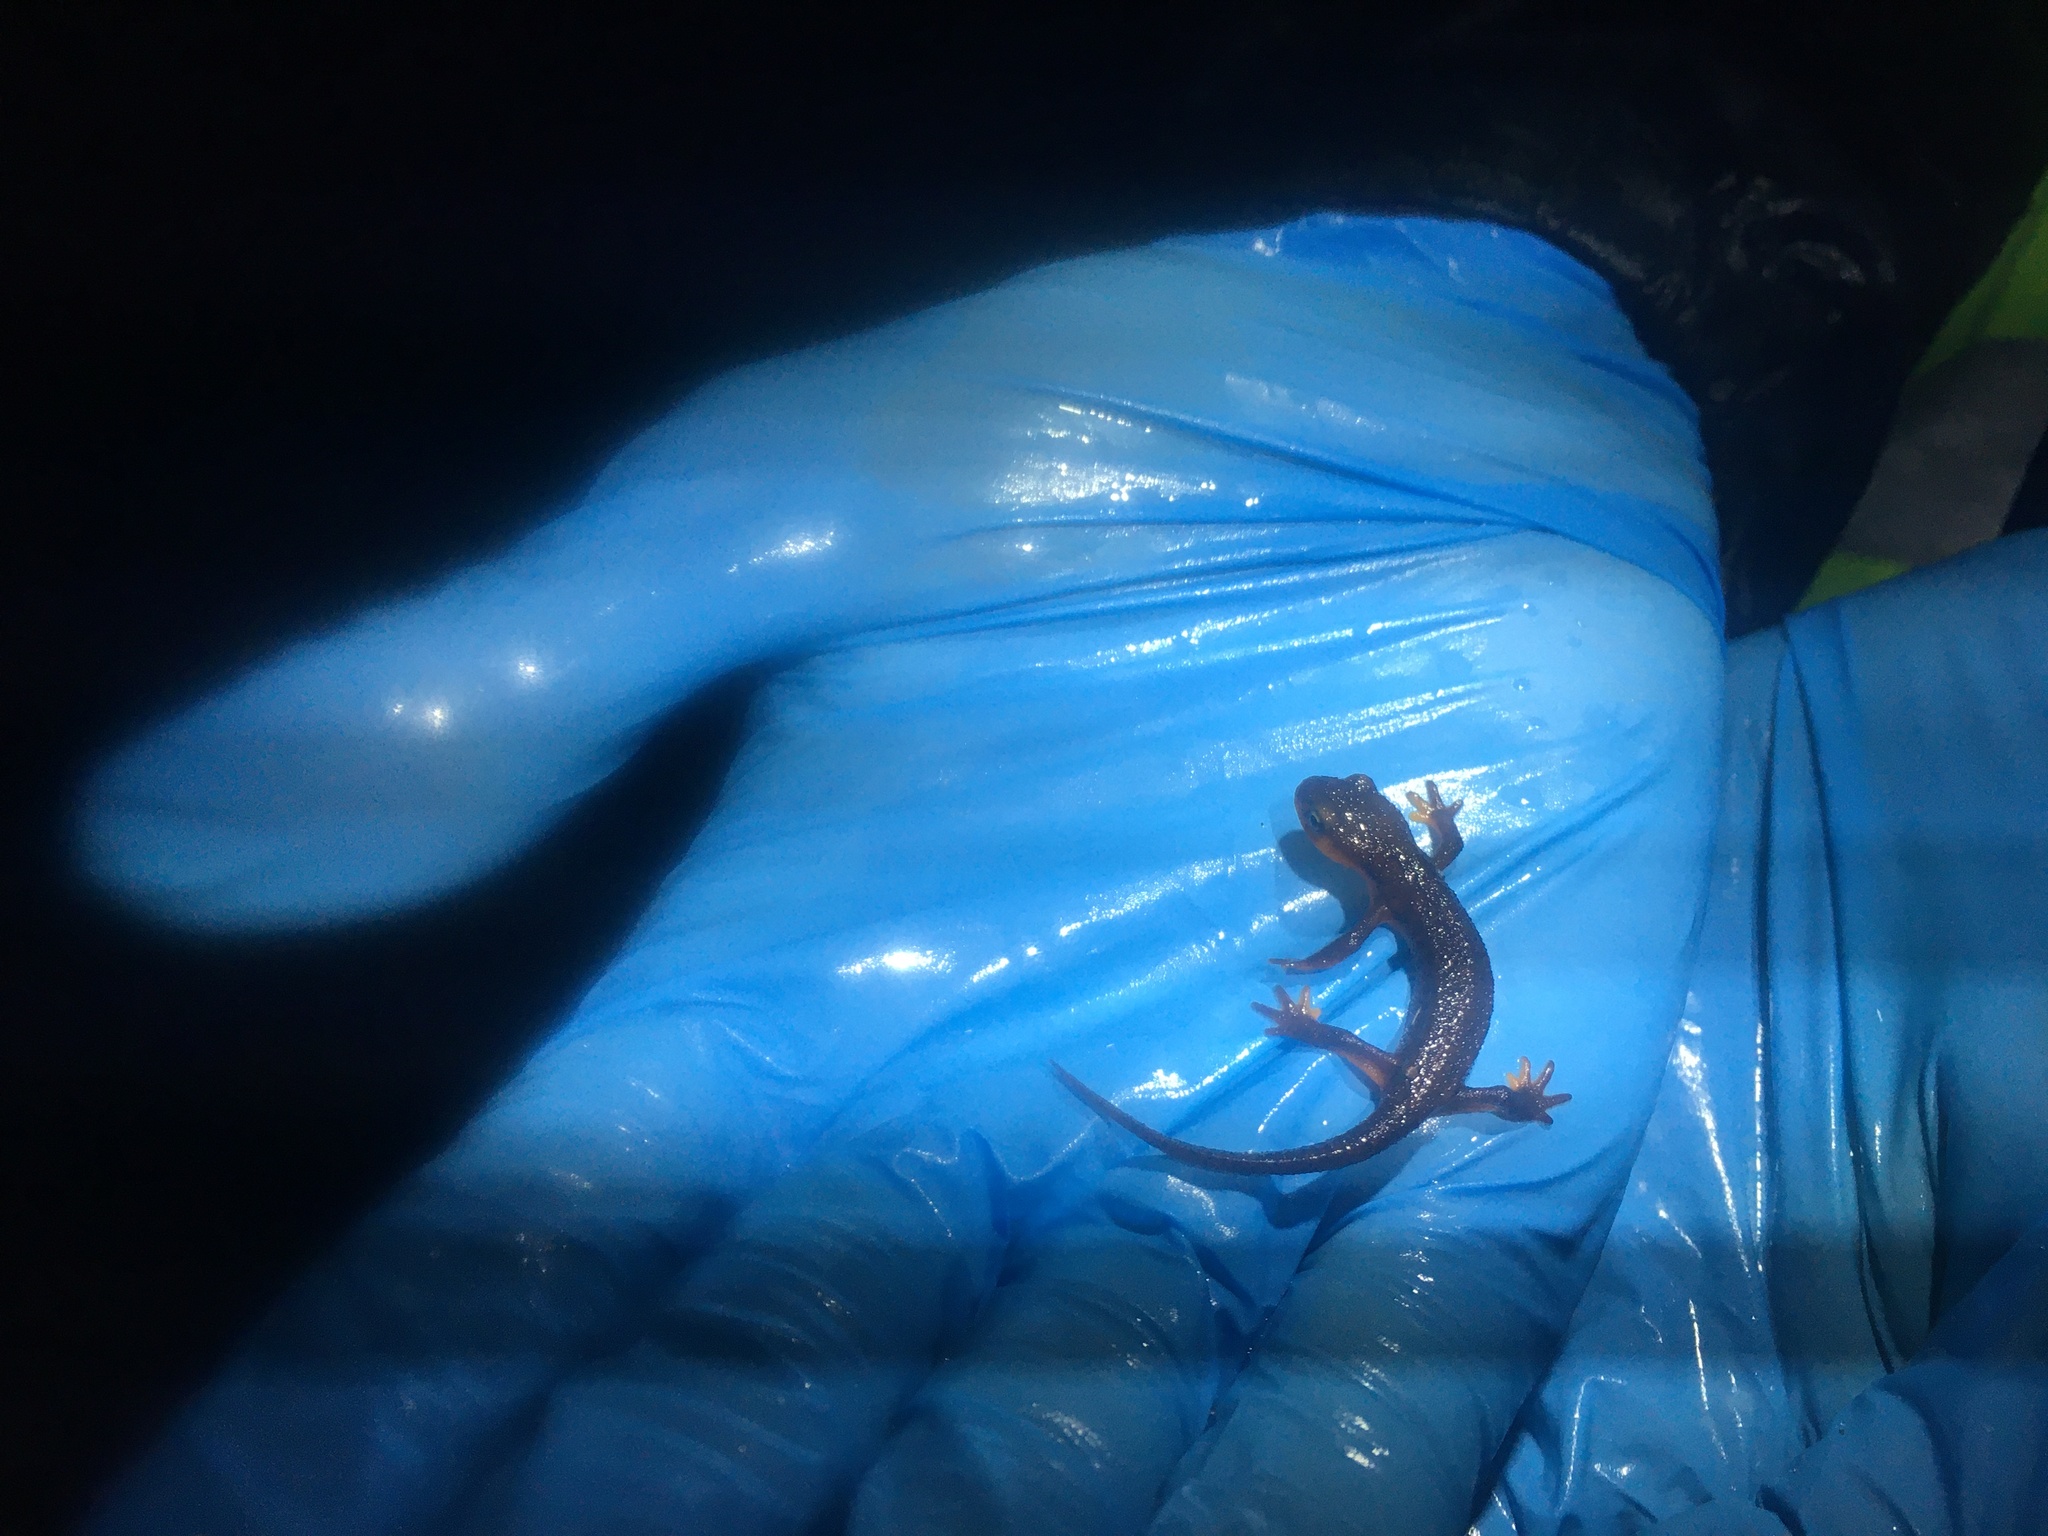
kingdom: Animalia
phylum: Chordata
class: Amphibia
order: Caudata
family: Salamandridae
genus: Taricha
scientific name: Taricha
